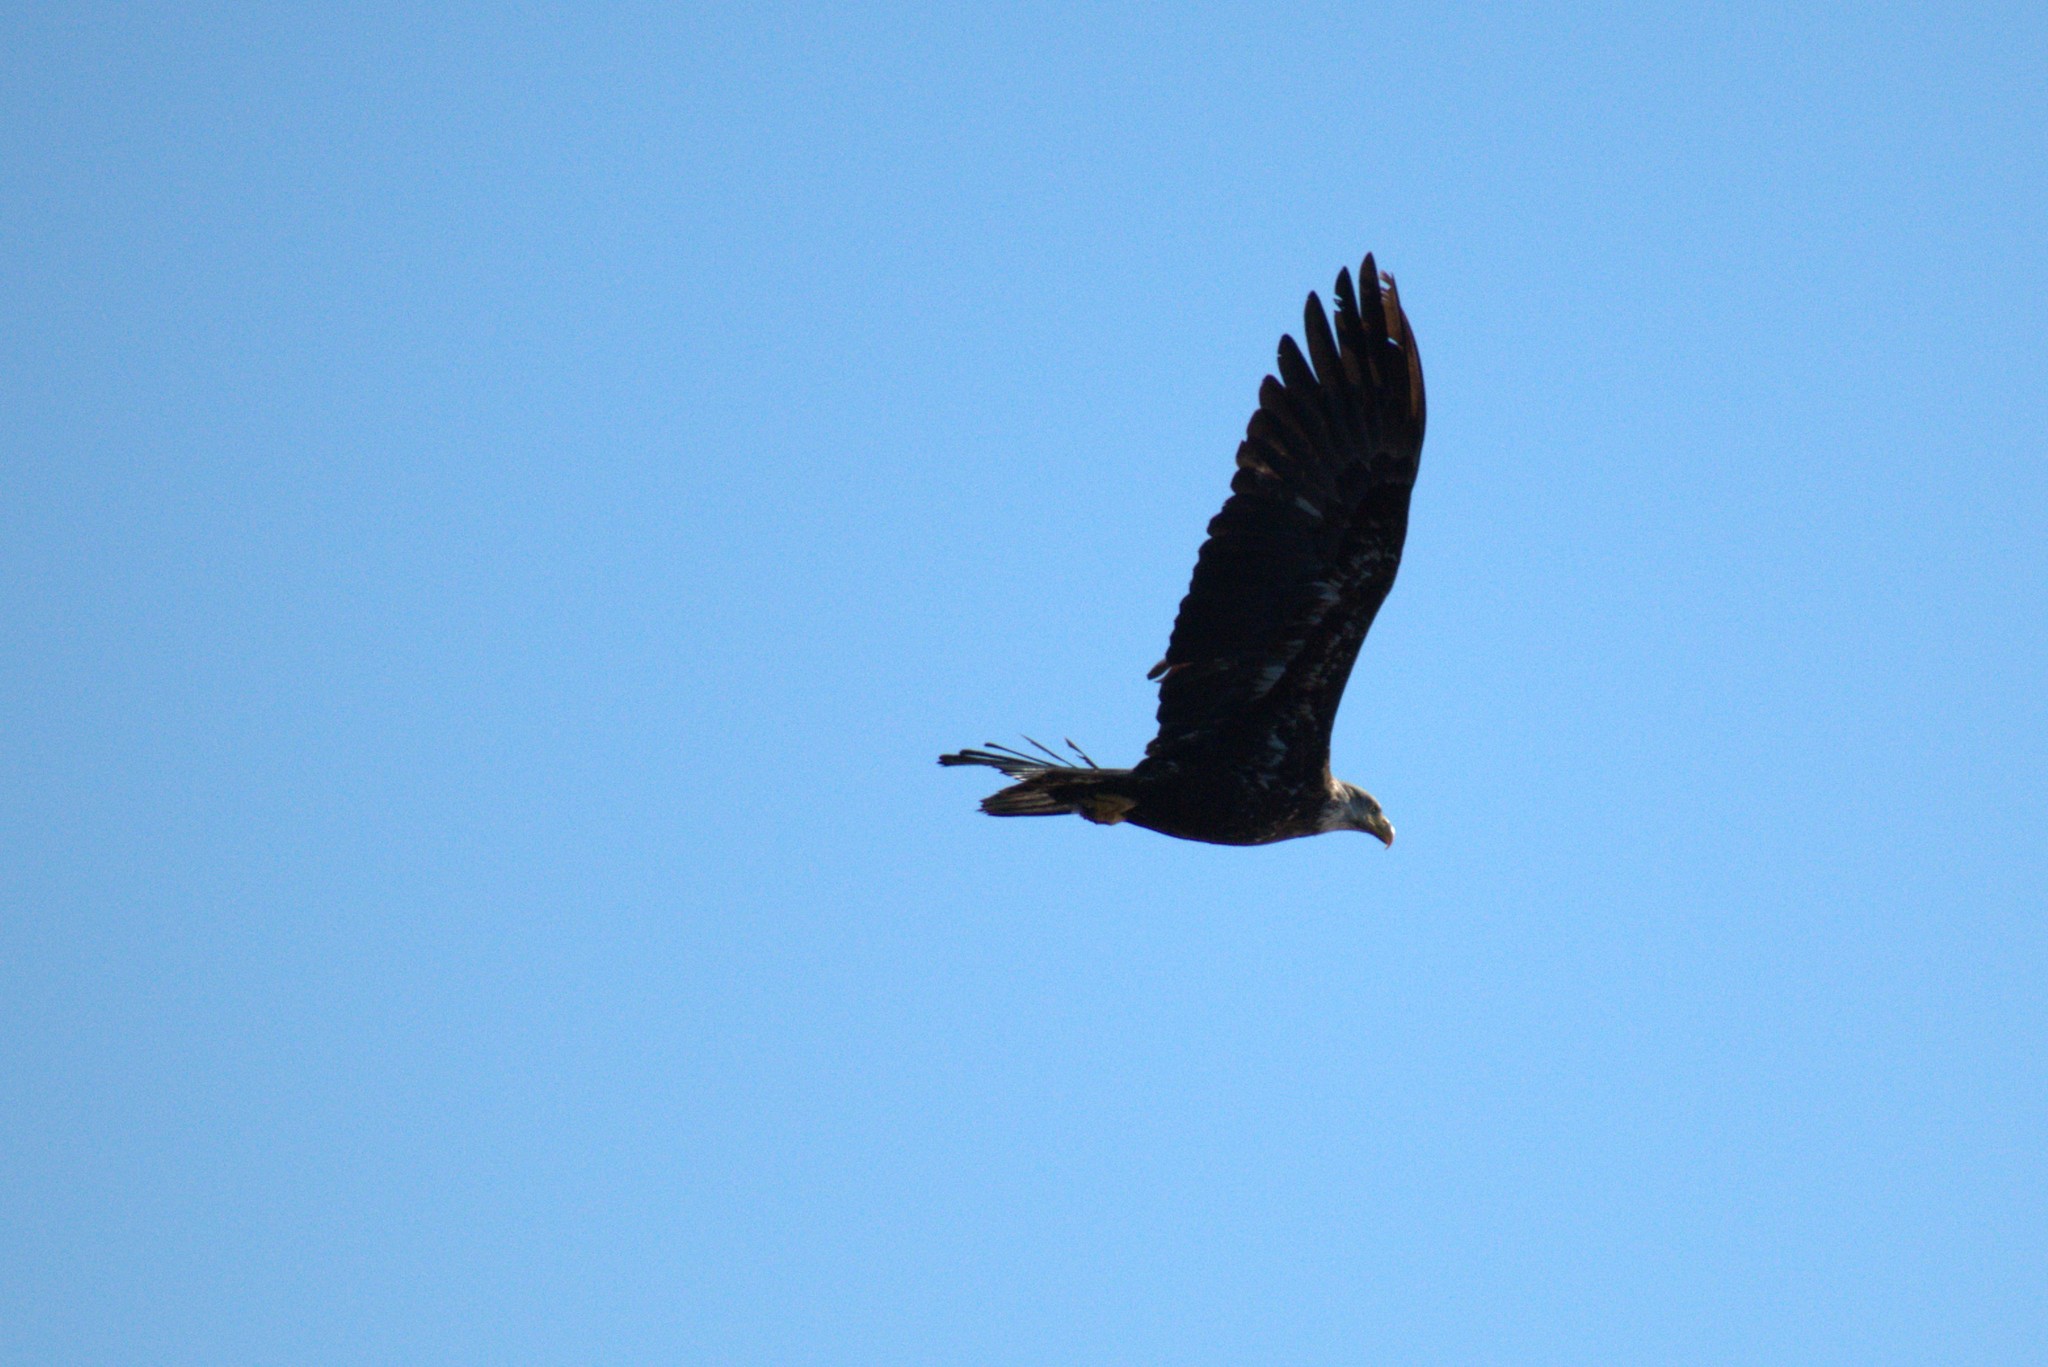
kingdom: Animalia
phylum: Chordata
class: Aves
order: Accipitriformes
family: Accipitridae
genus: Haliaeetus
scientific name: Haliaeetus leucocephalus
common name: Bald eagle
